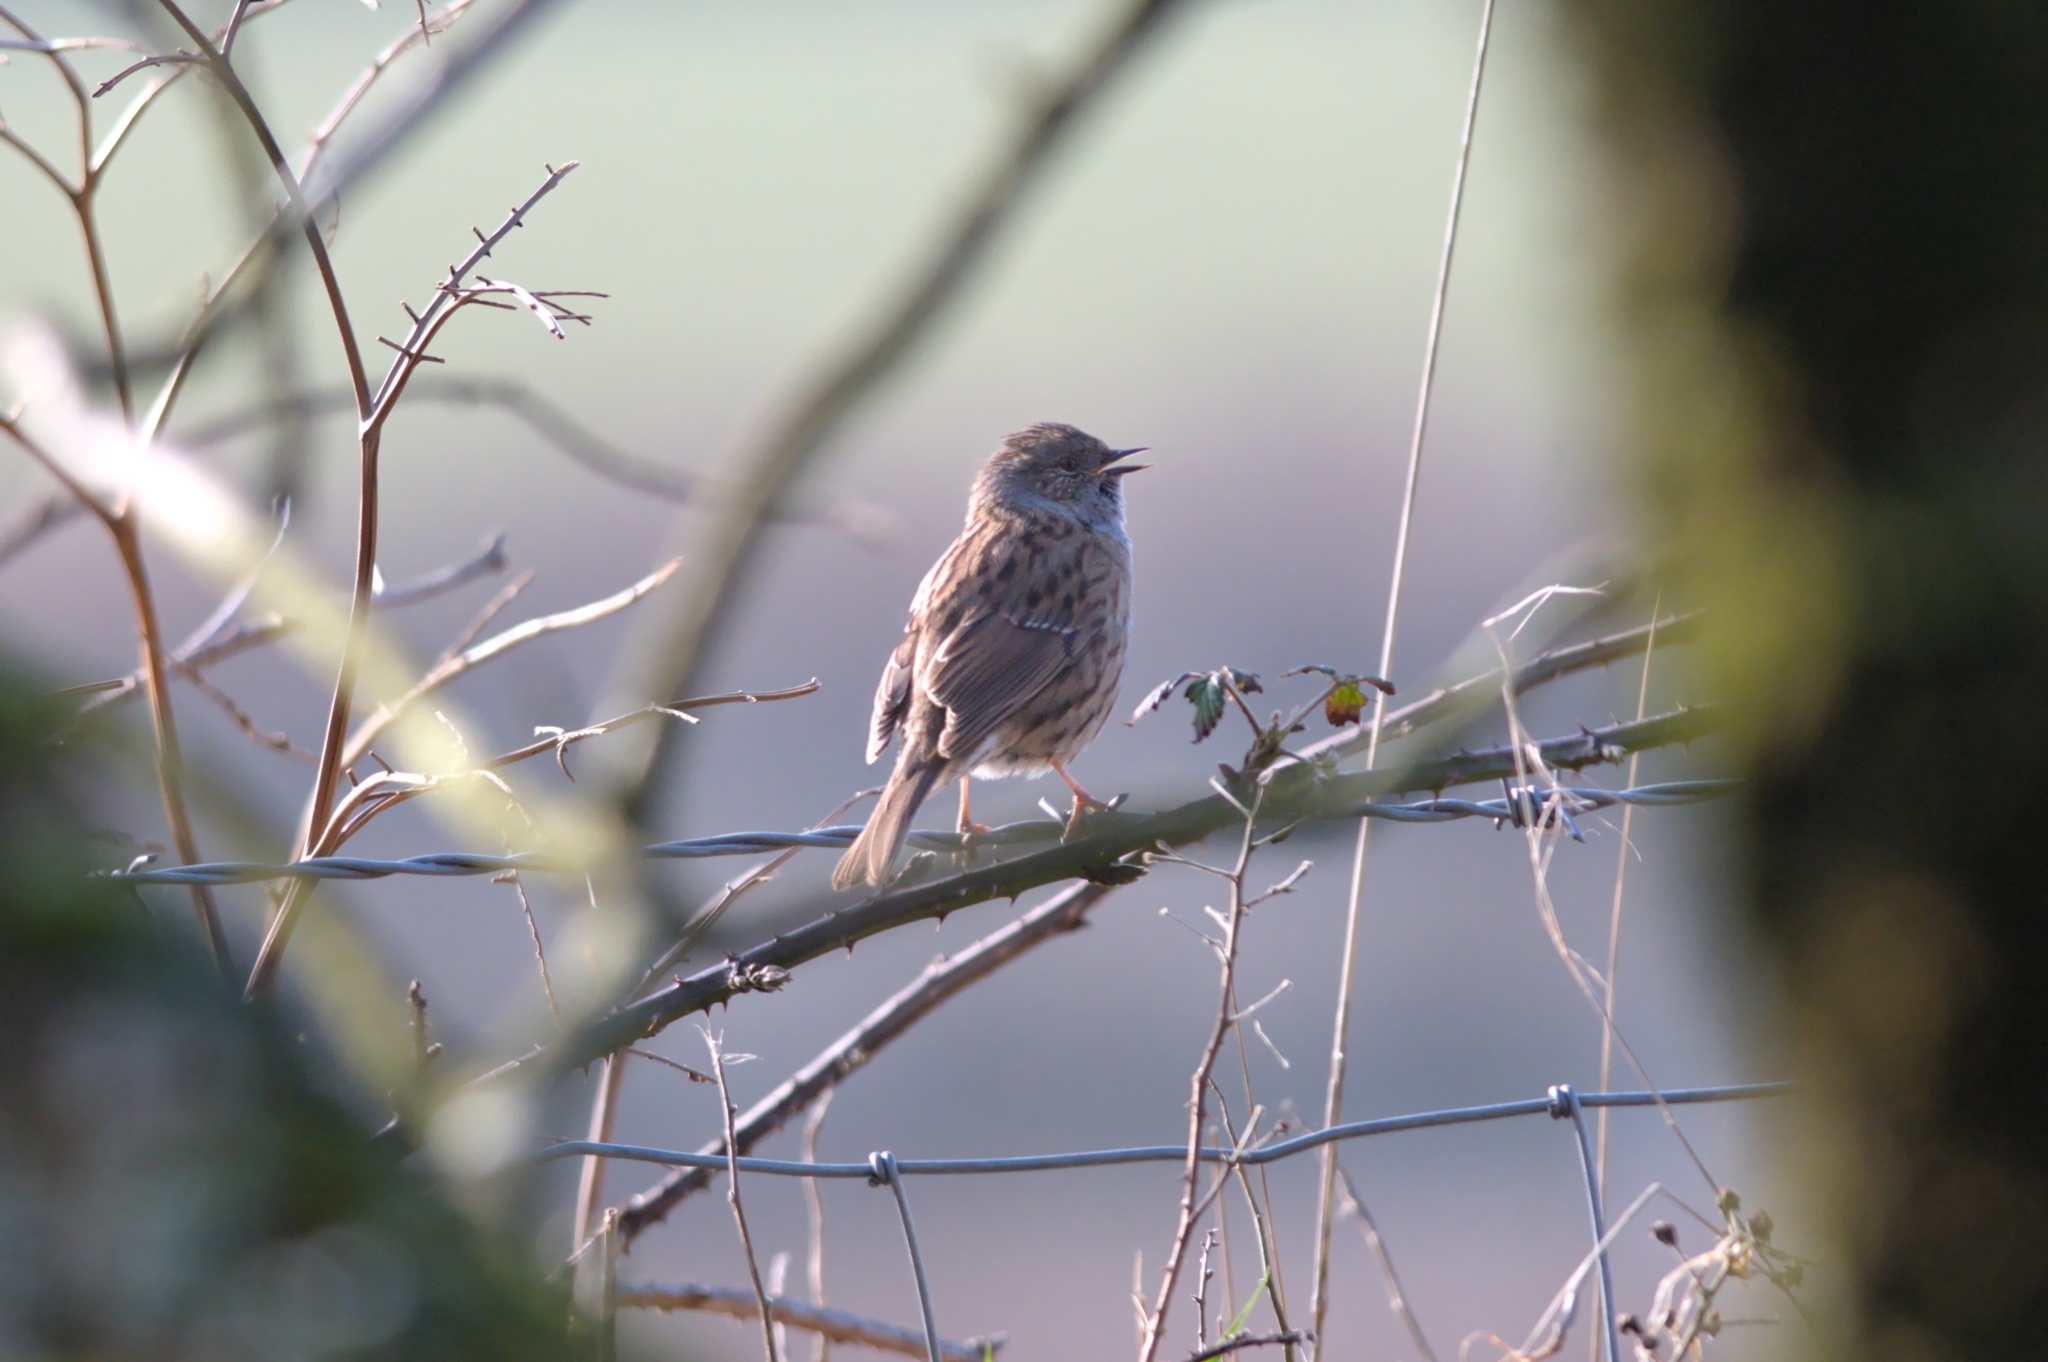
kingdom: Animalia
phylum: Chordata
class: Aves
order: Passeriformes
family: Prunellidae
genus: Prunella
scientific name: Prunella modularis
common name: Dunnock
